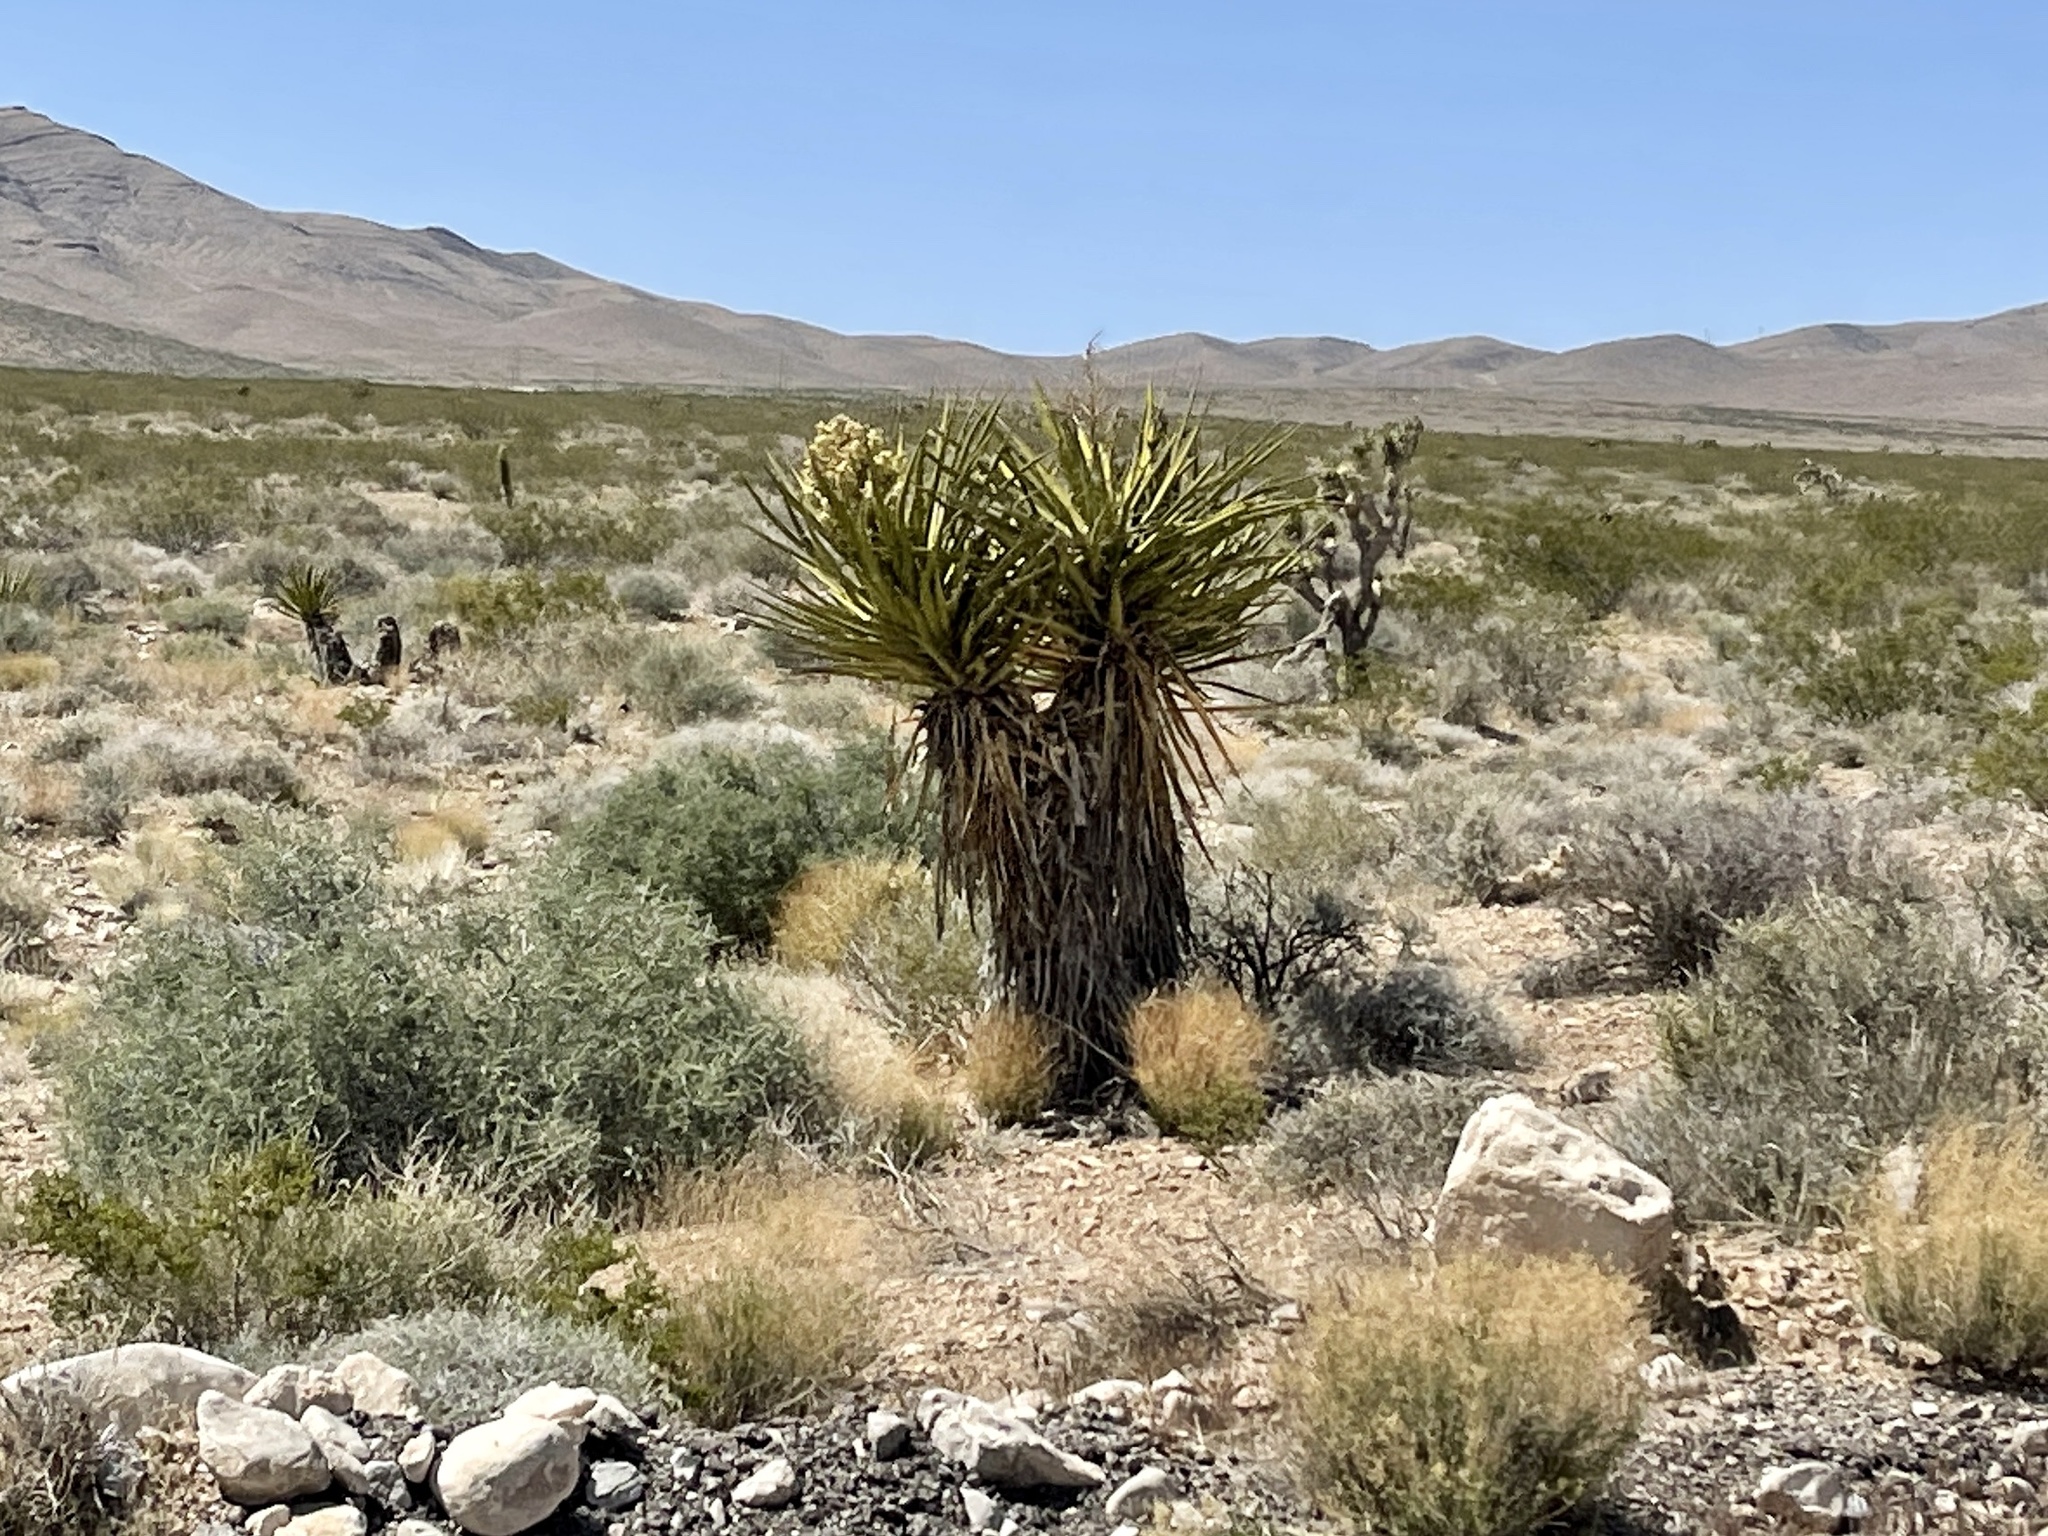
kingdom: Plantae
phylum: Tracheophyta
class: Liliopsida
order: Asparagales
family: Asparagaceae
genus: Yucca
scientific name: Yucca schidigera
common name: Mojave yucca
